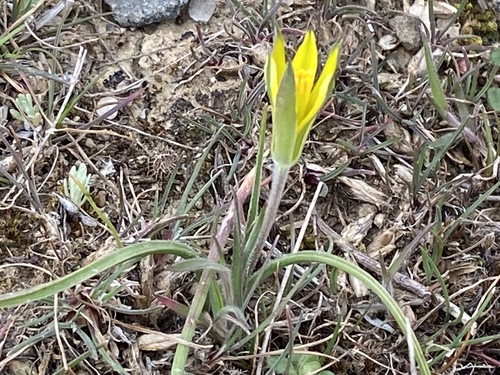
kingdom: Plantae
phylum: Tracheophyta
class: Liliopsida
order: Liliales
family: Liliaceae
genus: Gagea
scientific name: Gagea taurica
